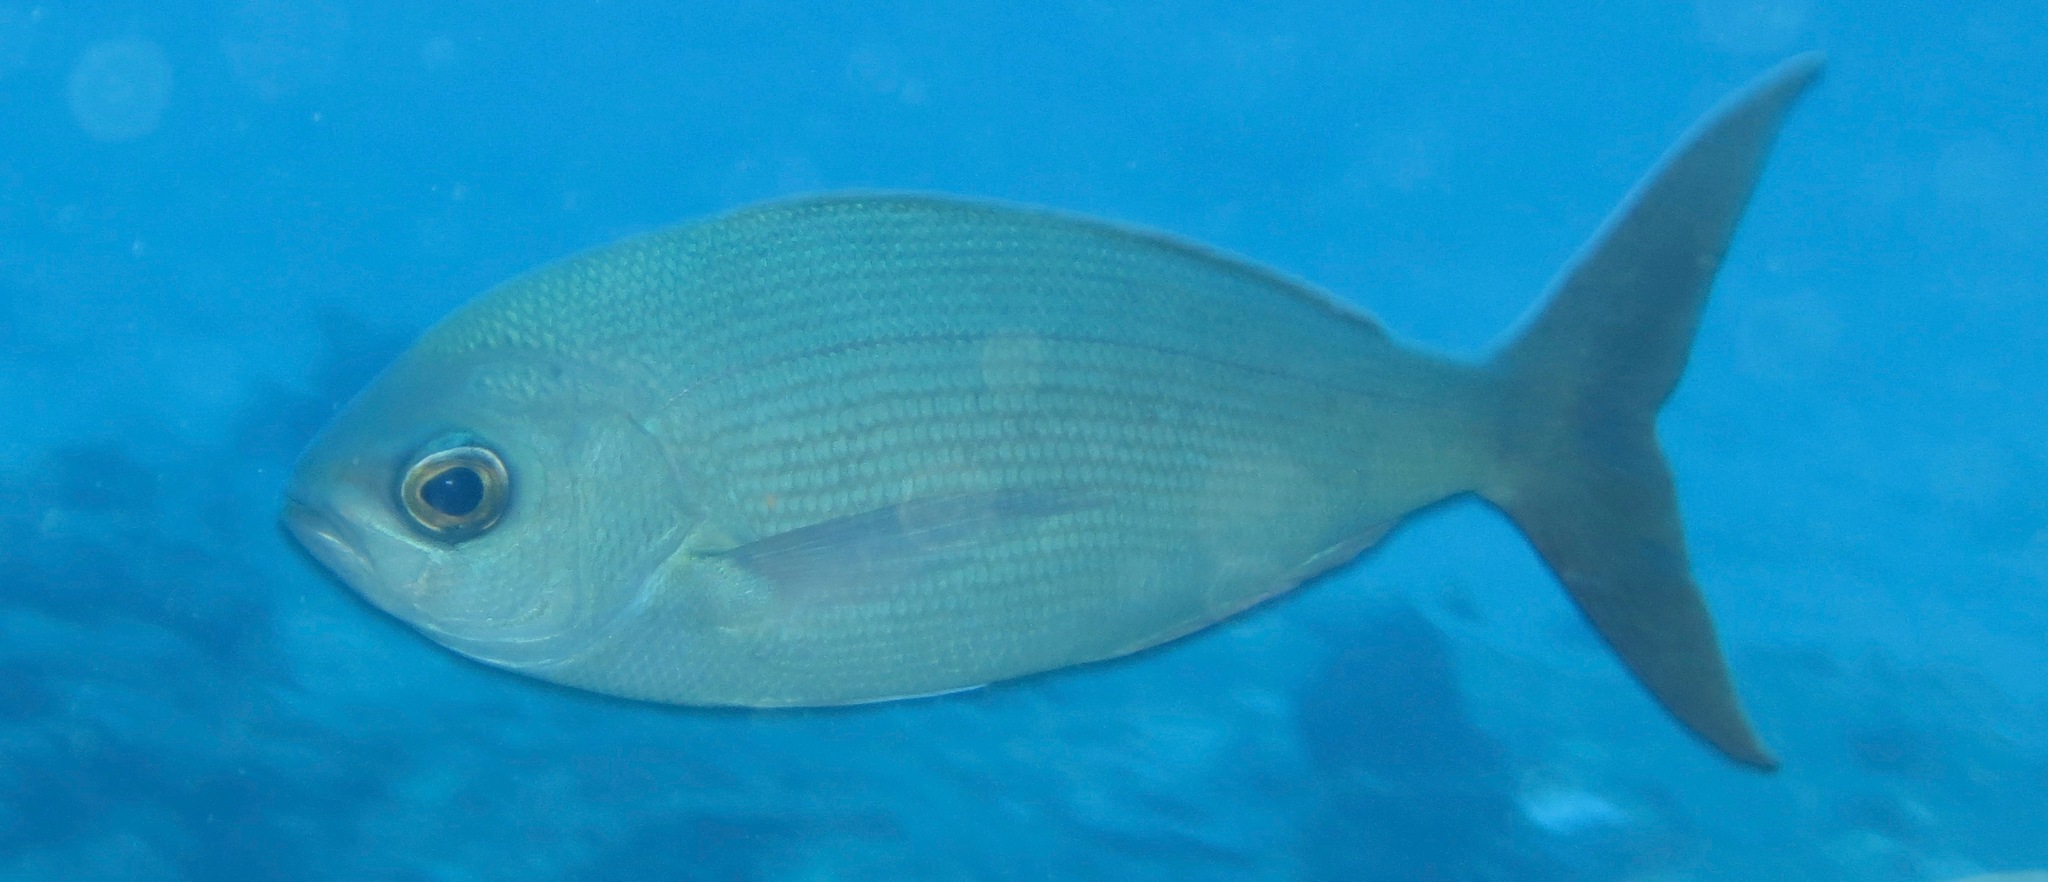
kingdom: Animalia
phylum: Chordata
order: Perciformes
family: Lutjanidae
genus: Paracaesio
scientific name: Paracaesio sordida
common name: Blue snapper
